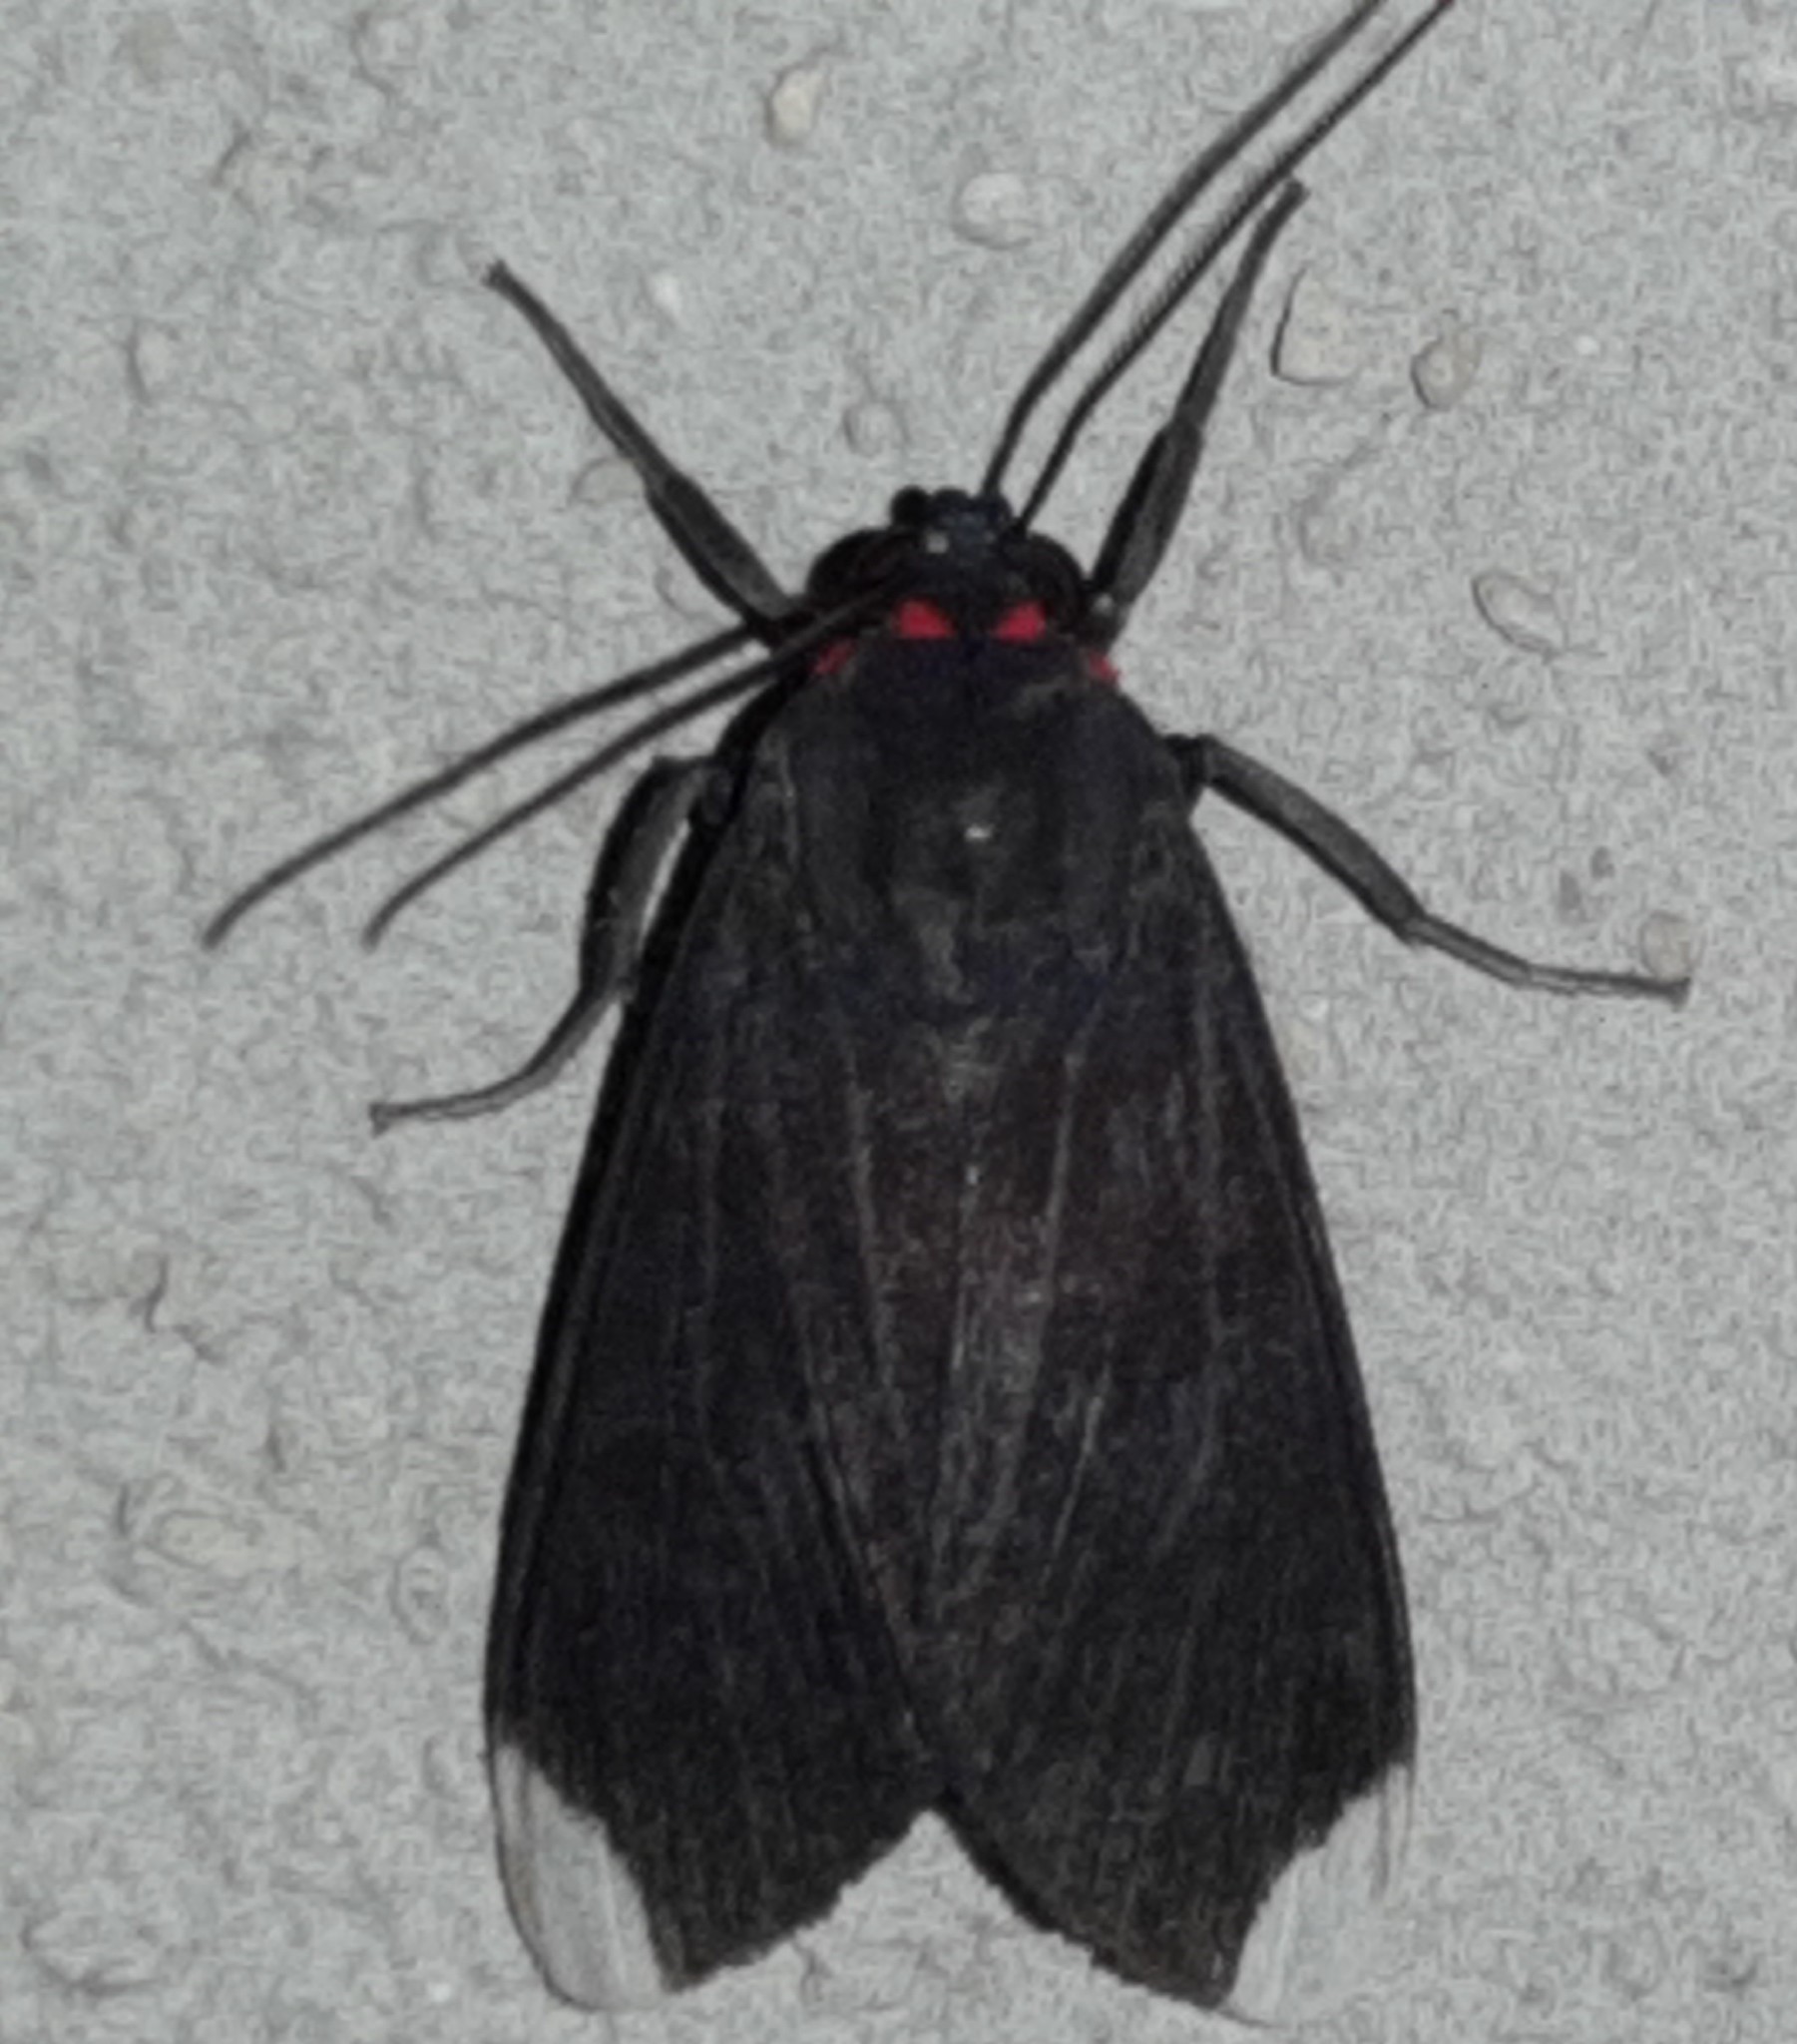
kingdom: Animalia
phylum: Arthropoda
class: Insecta
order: Lepidoptera
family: Erebidae
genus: Episcepsis
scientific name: Episcepsis thetis
